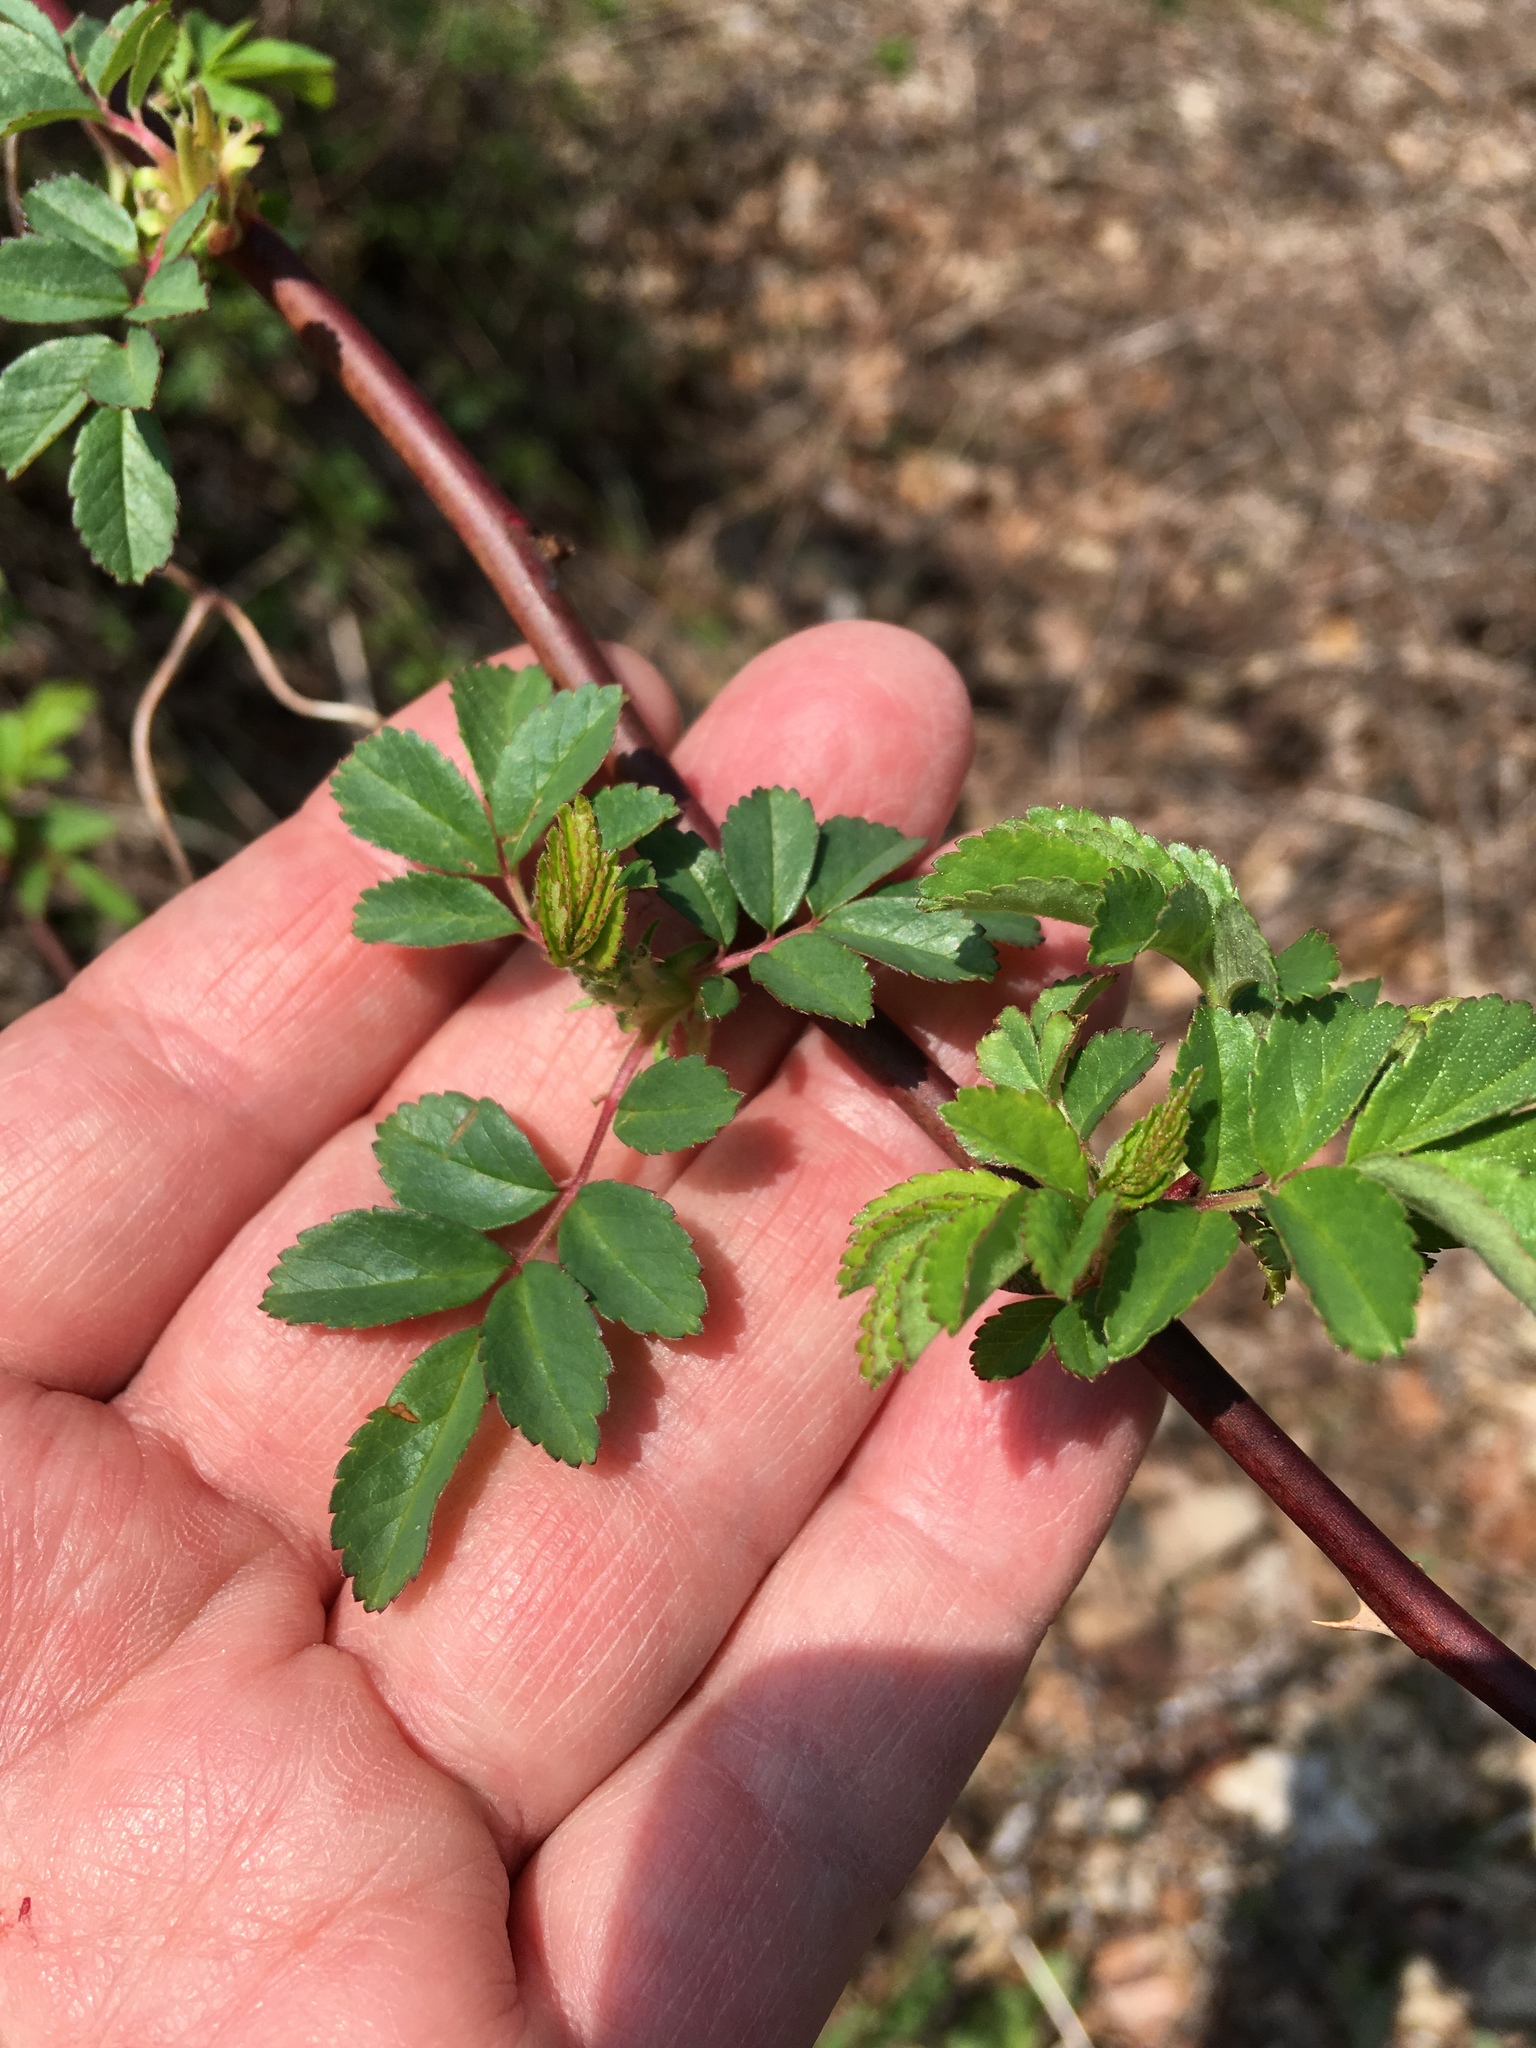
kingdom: Plantae
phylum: Tracheophyta
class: Magnoliopsida
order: Rosales
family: Rosaceae
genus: Rosa
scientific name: Rosa multiflora
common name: Multiflora rose
